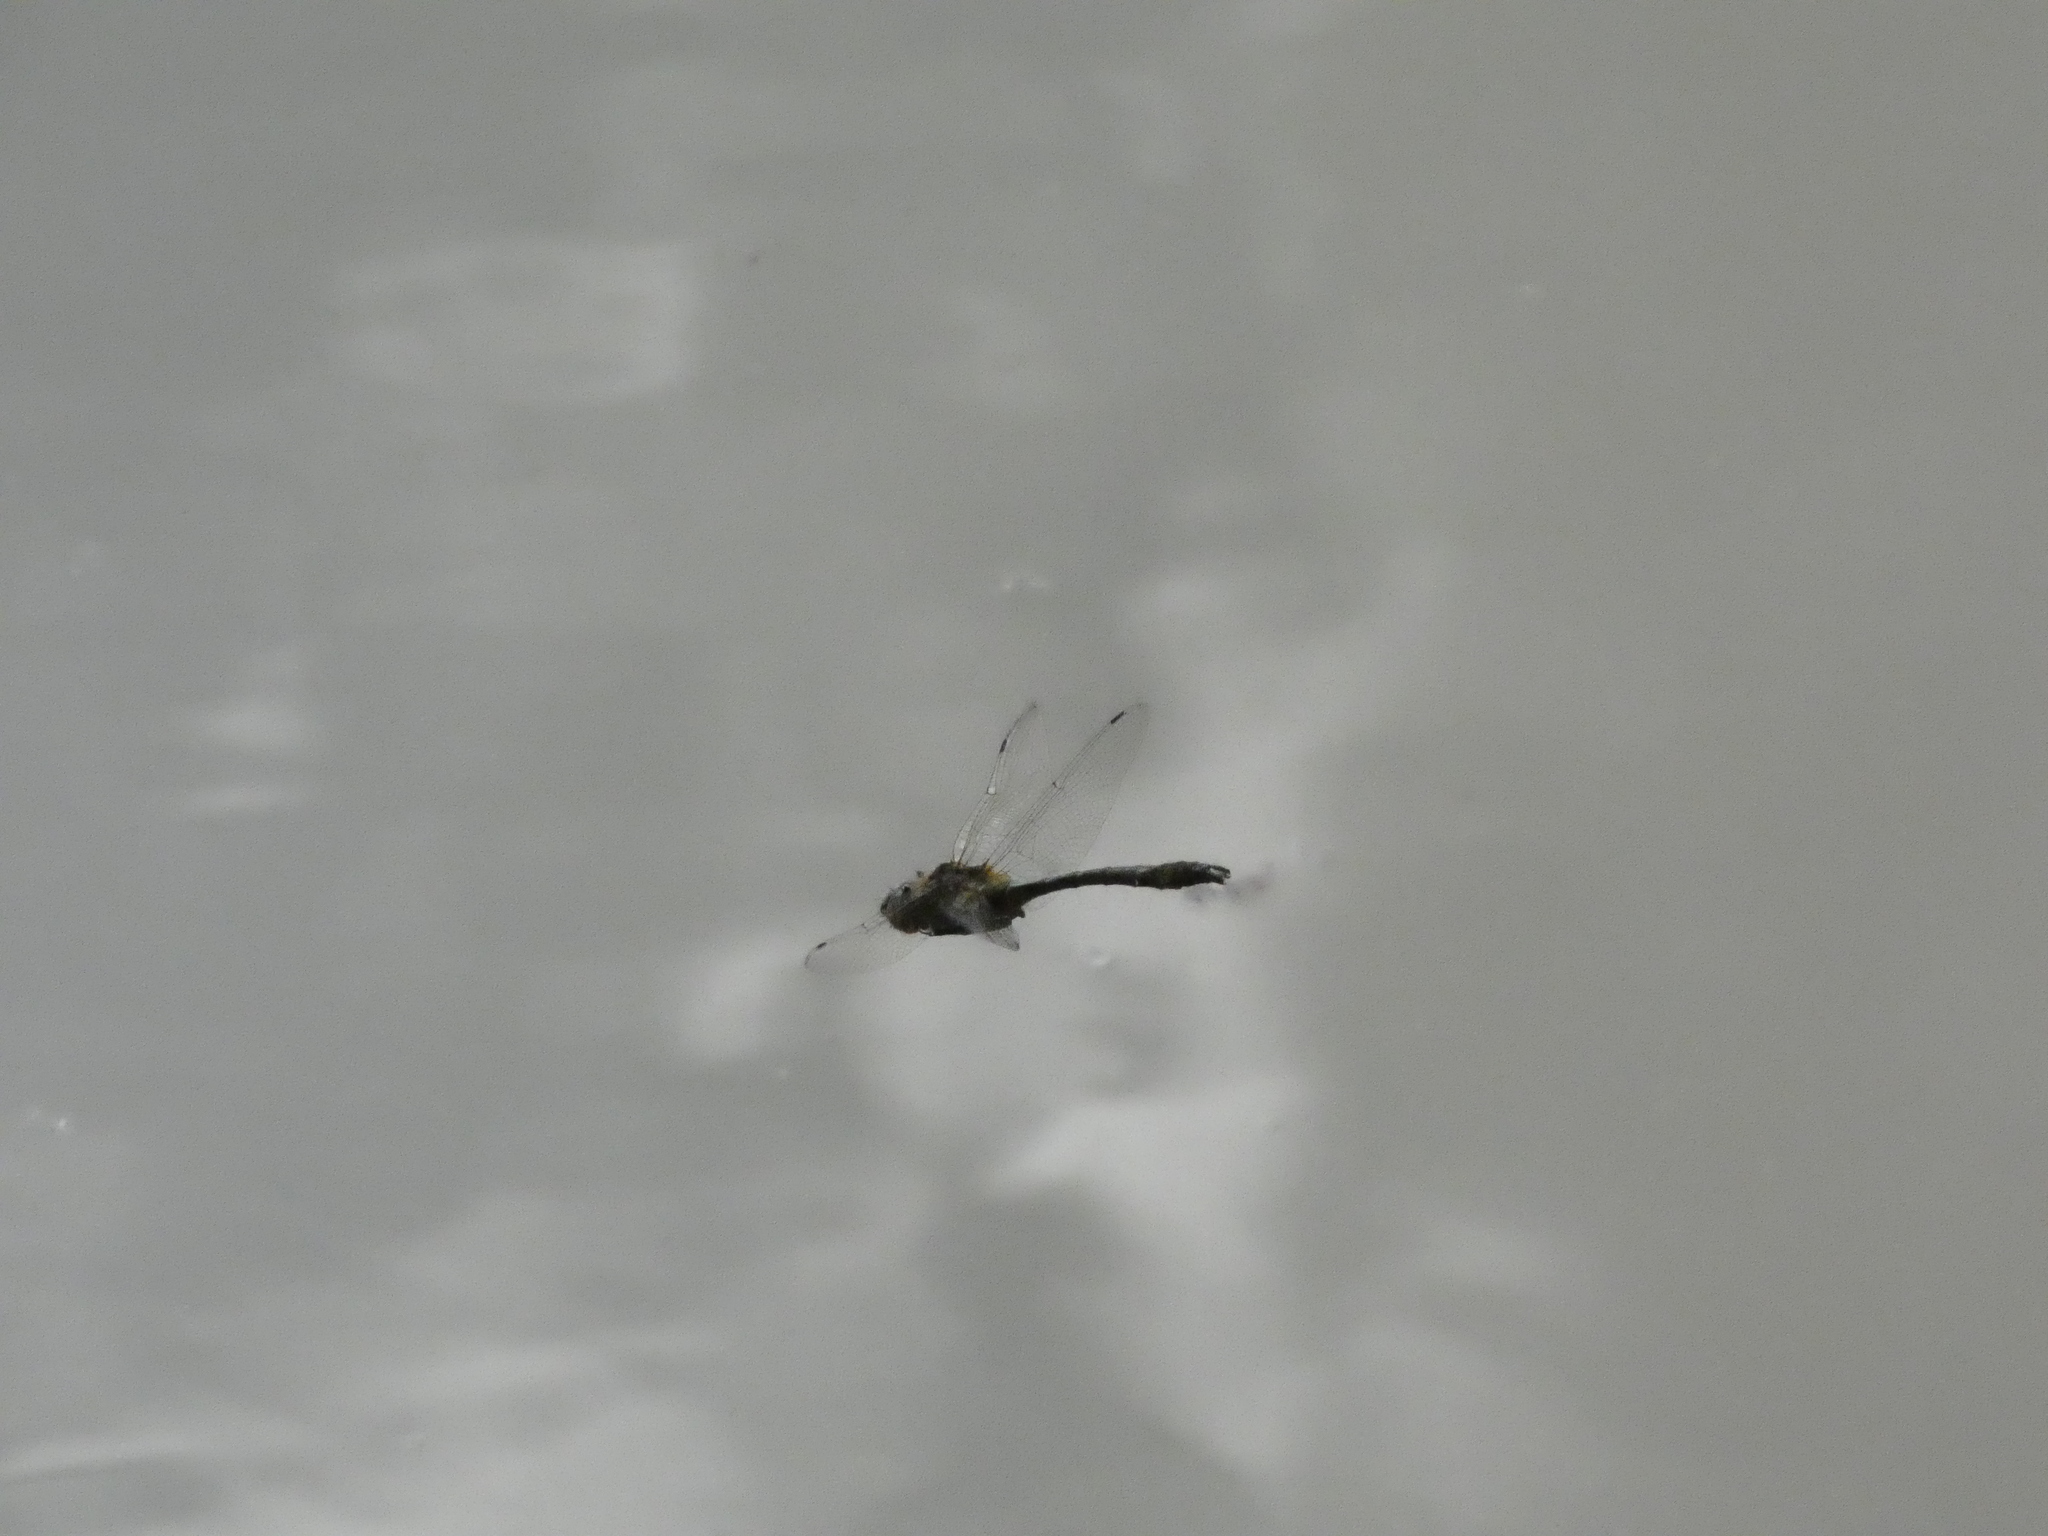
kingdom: Animalia
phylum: Arthropoda
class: Insecta
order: Odonata
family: Corduliidae
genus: Cordulia
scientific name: Cordulia aenea
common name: Downy emerald
